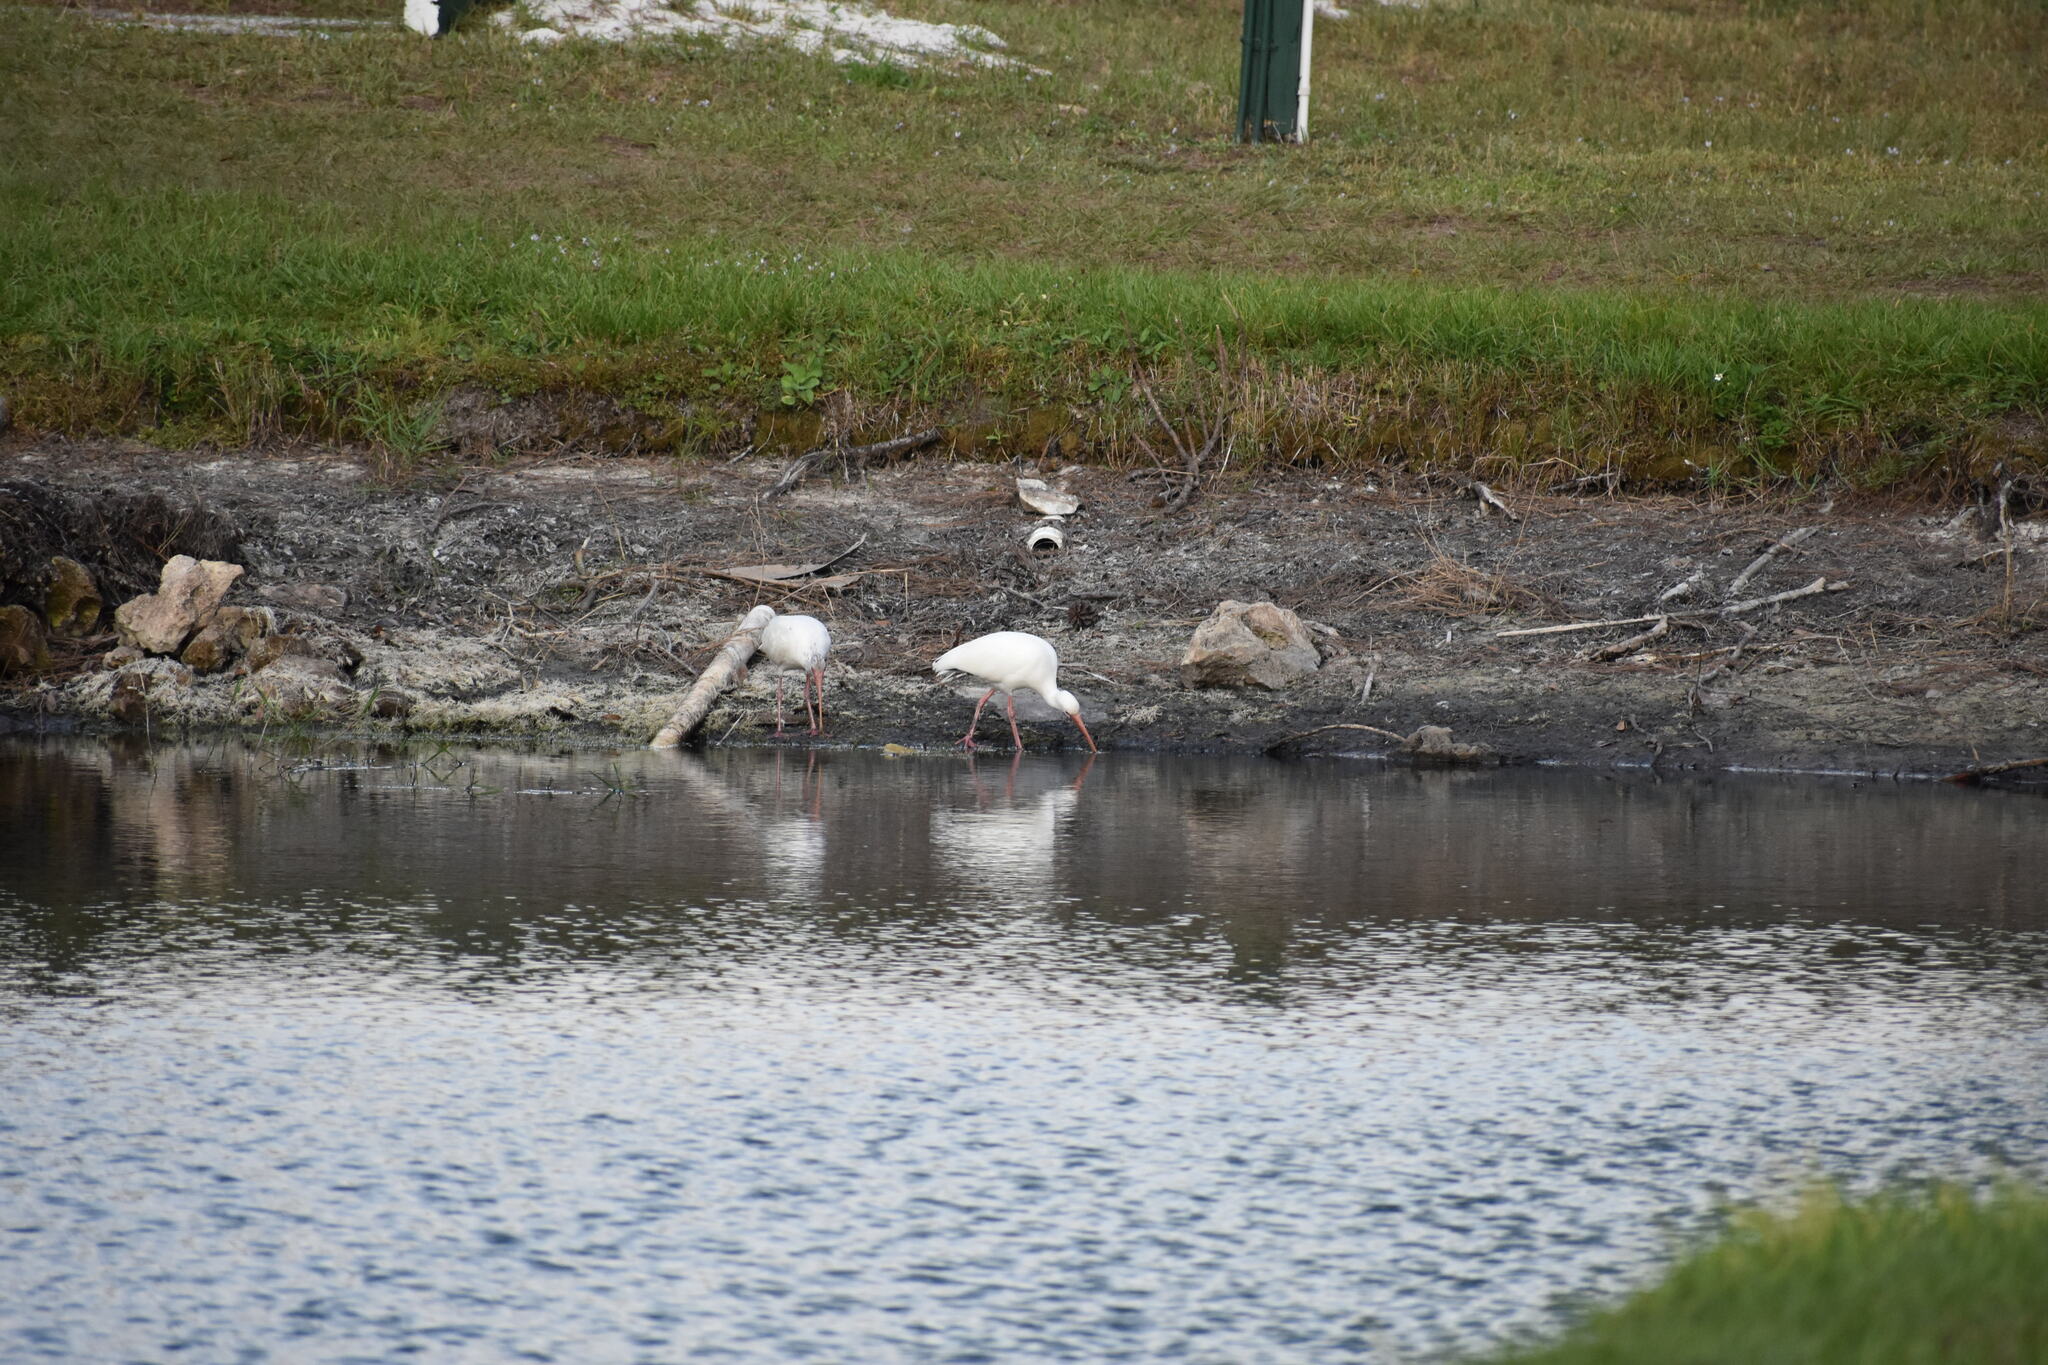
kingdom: Animalia
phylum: Chordata
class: Aves
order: Pelecaniformes
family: Threskiornithidae
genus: Eudocimus
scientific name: Eudocimus albus
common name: White ibis
